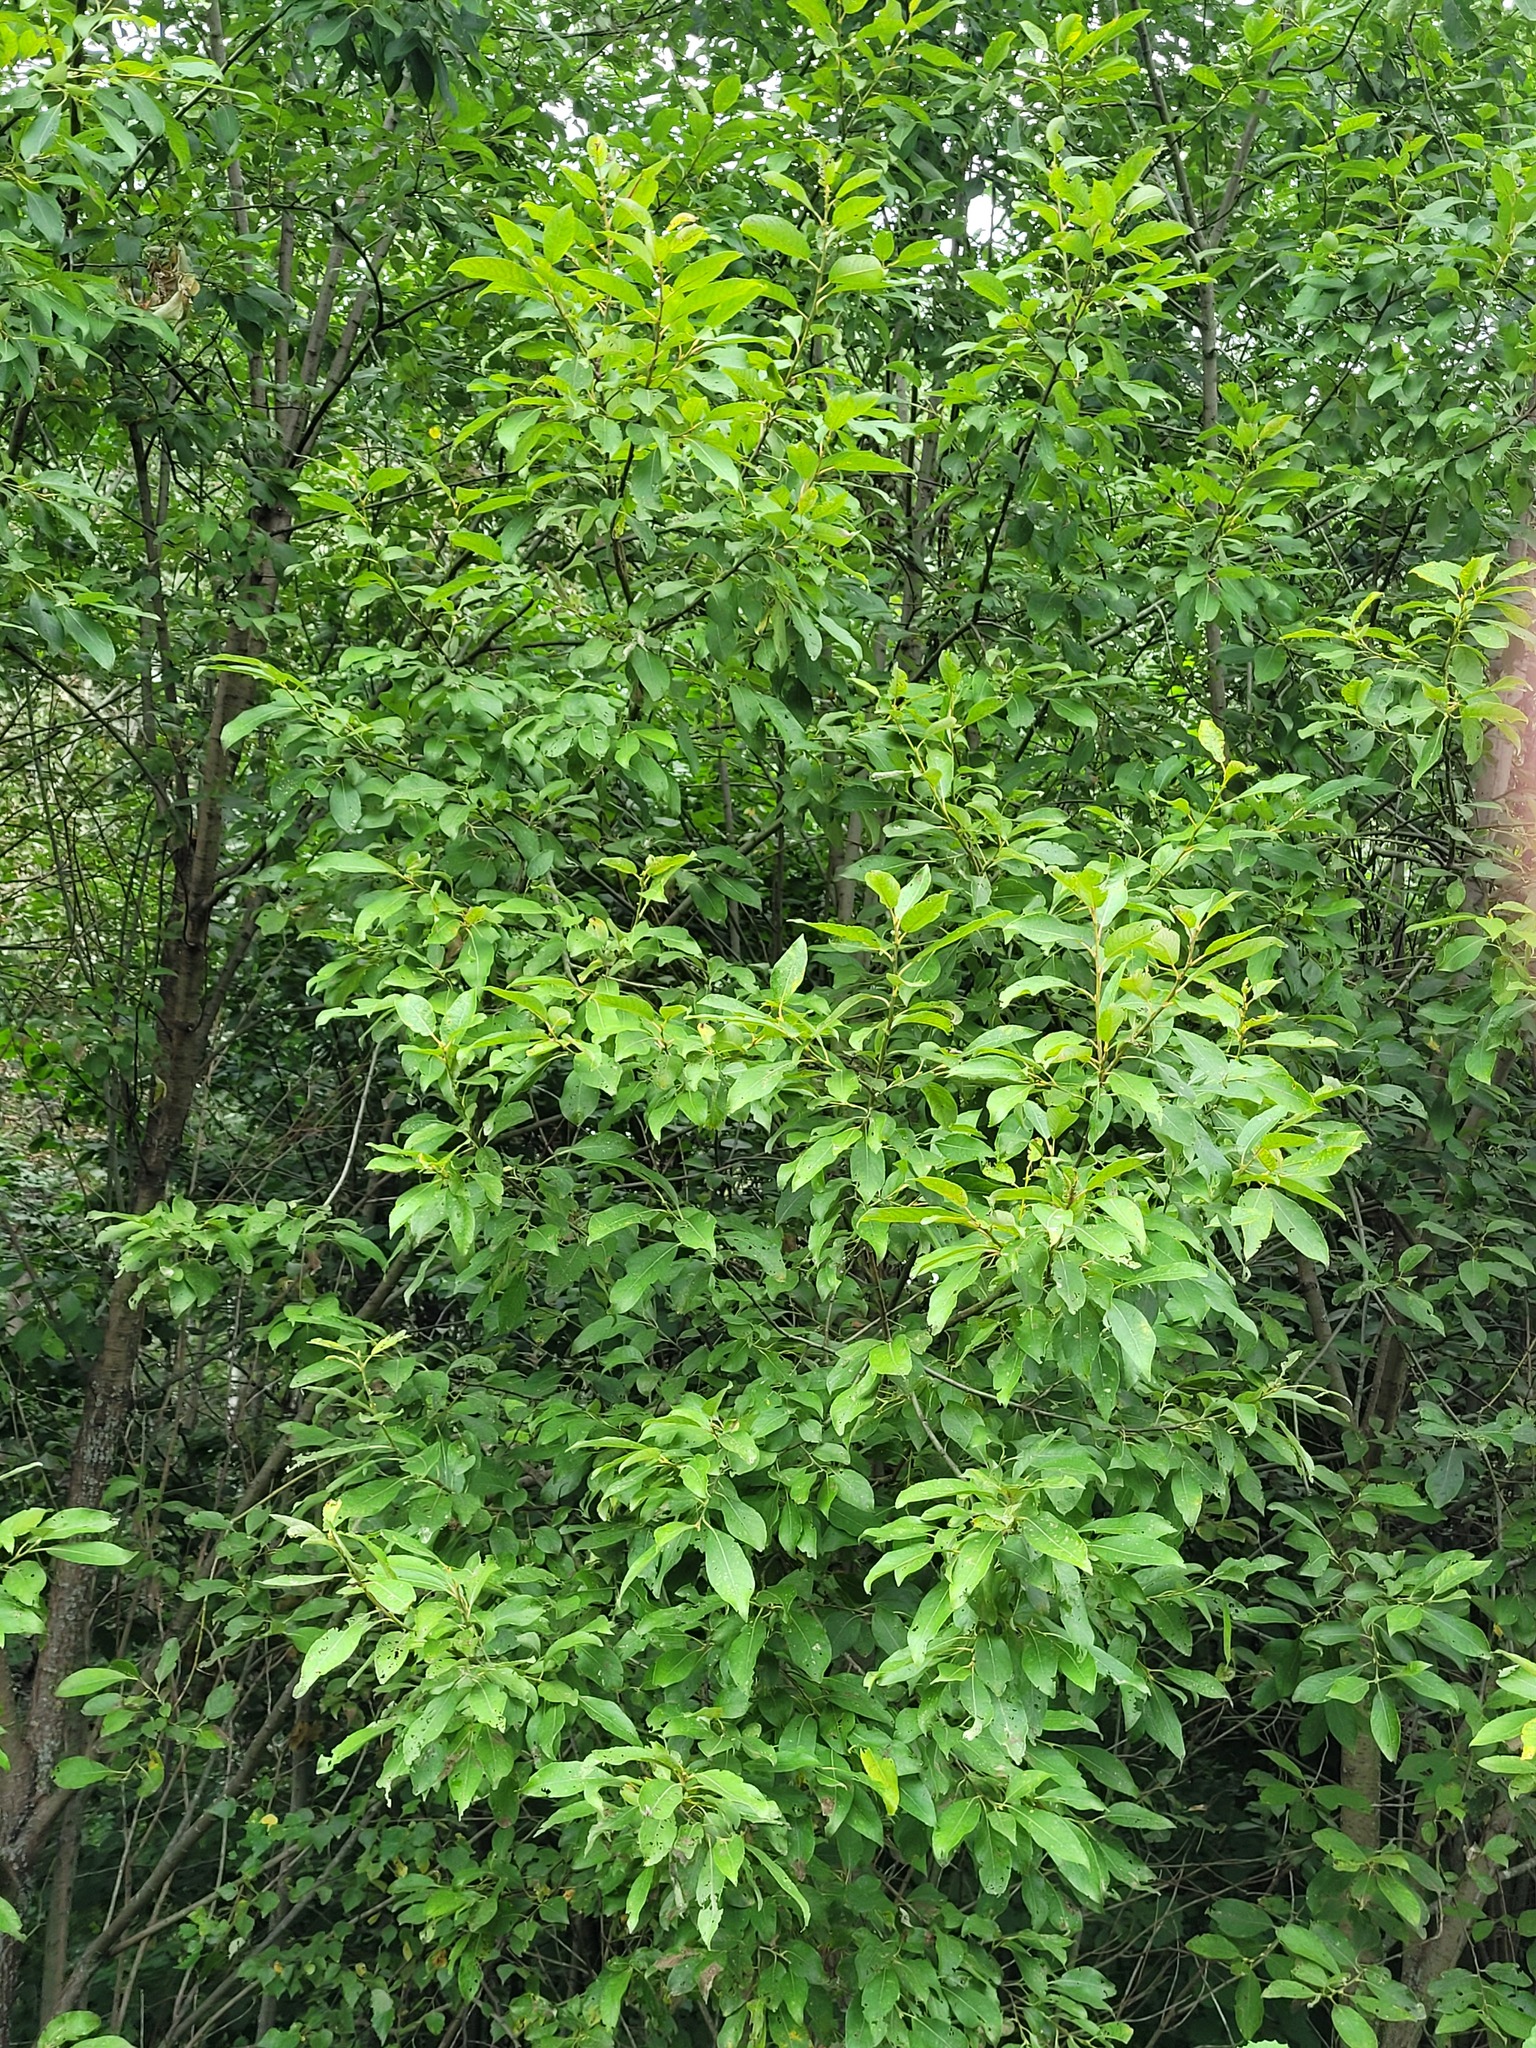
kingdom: Plantae
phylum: Tracheophyta
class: Magnoliopsida
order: Malpighiales
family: Salicaceae
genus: Salix
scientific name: Salix caprea
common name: Goat willow
